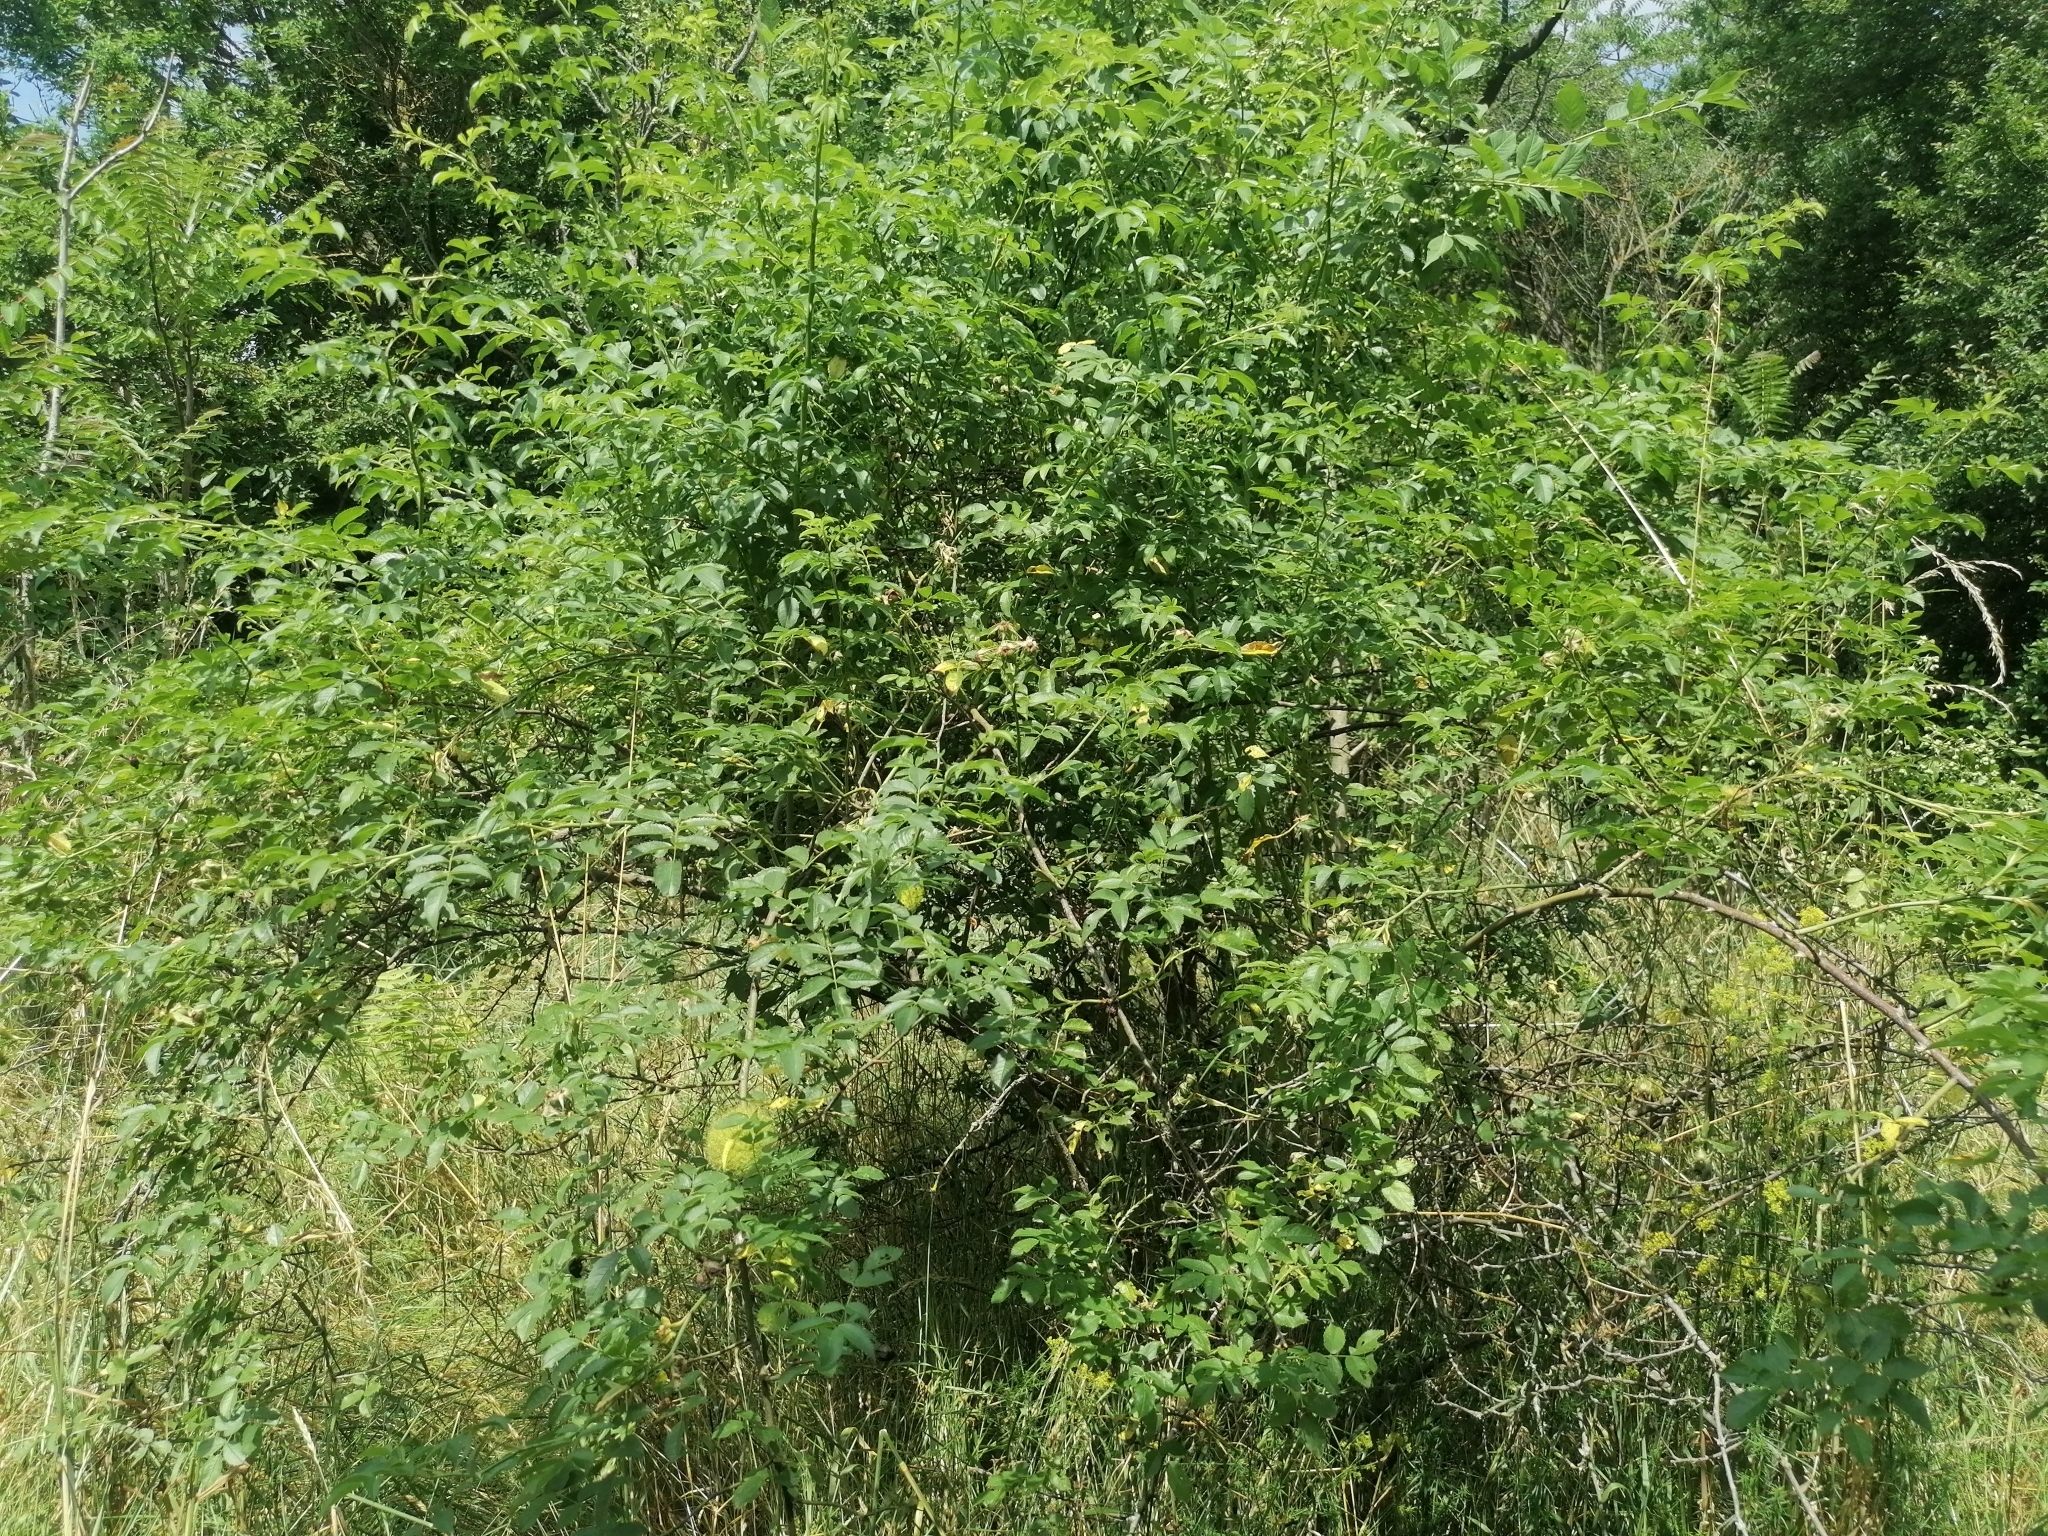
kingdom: Animalia
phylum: Arthropoda
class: Insecta
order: Hymenoptera
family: Cynipidae
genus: Diplolepis
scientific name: Diplolepis rosae
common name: Bedeguar gall
